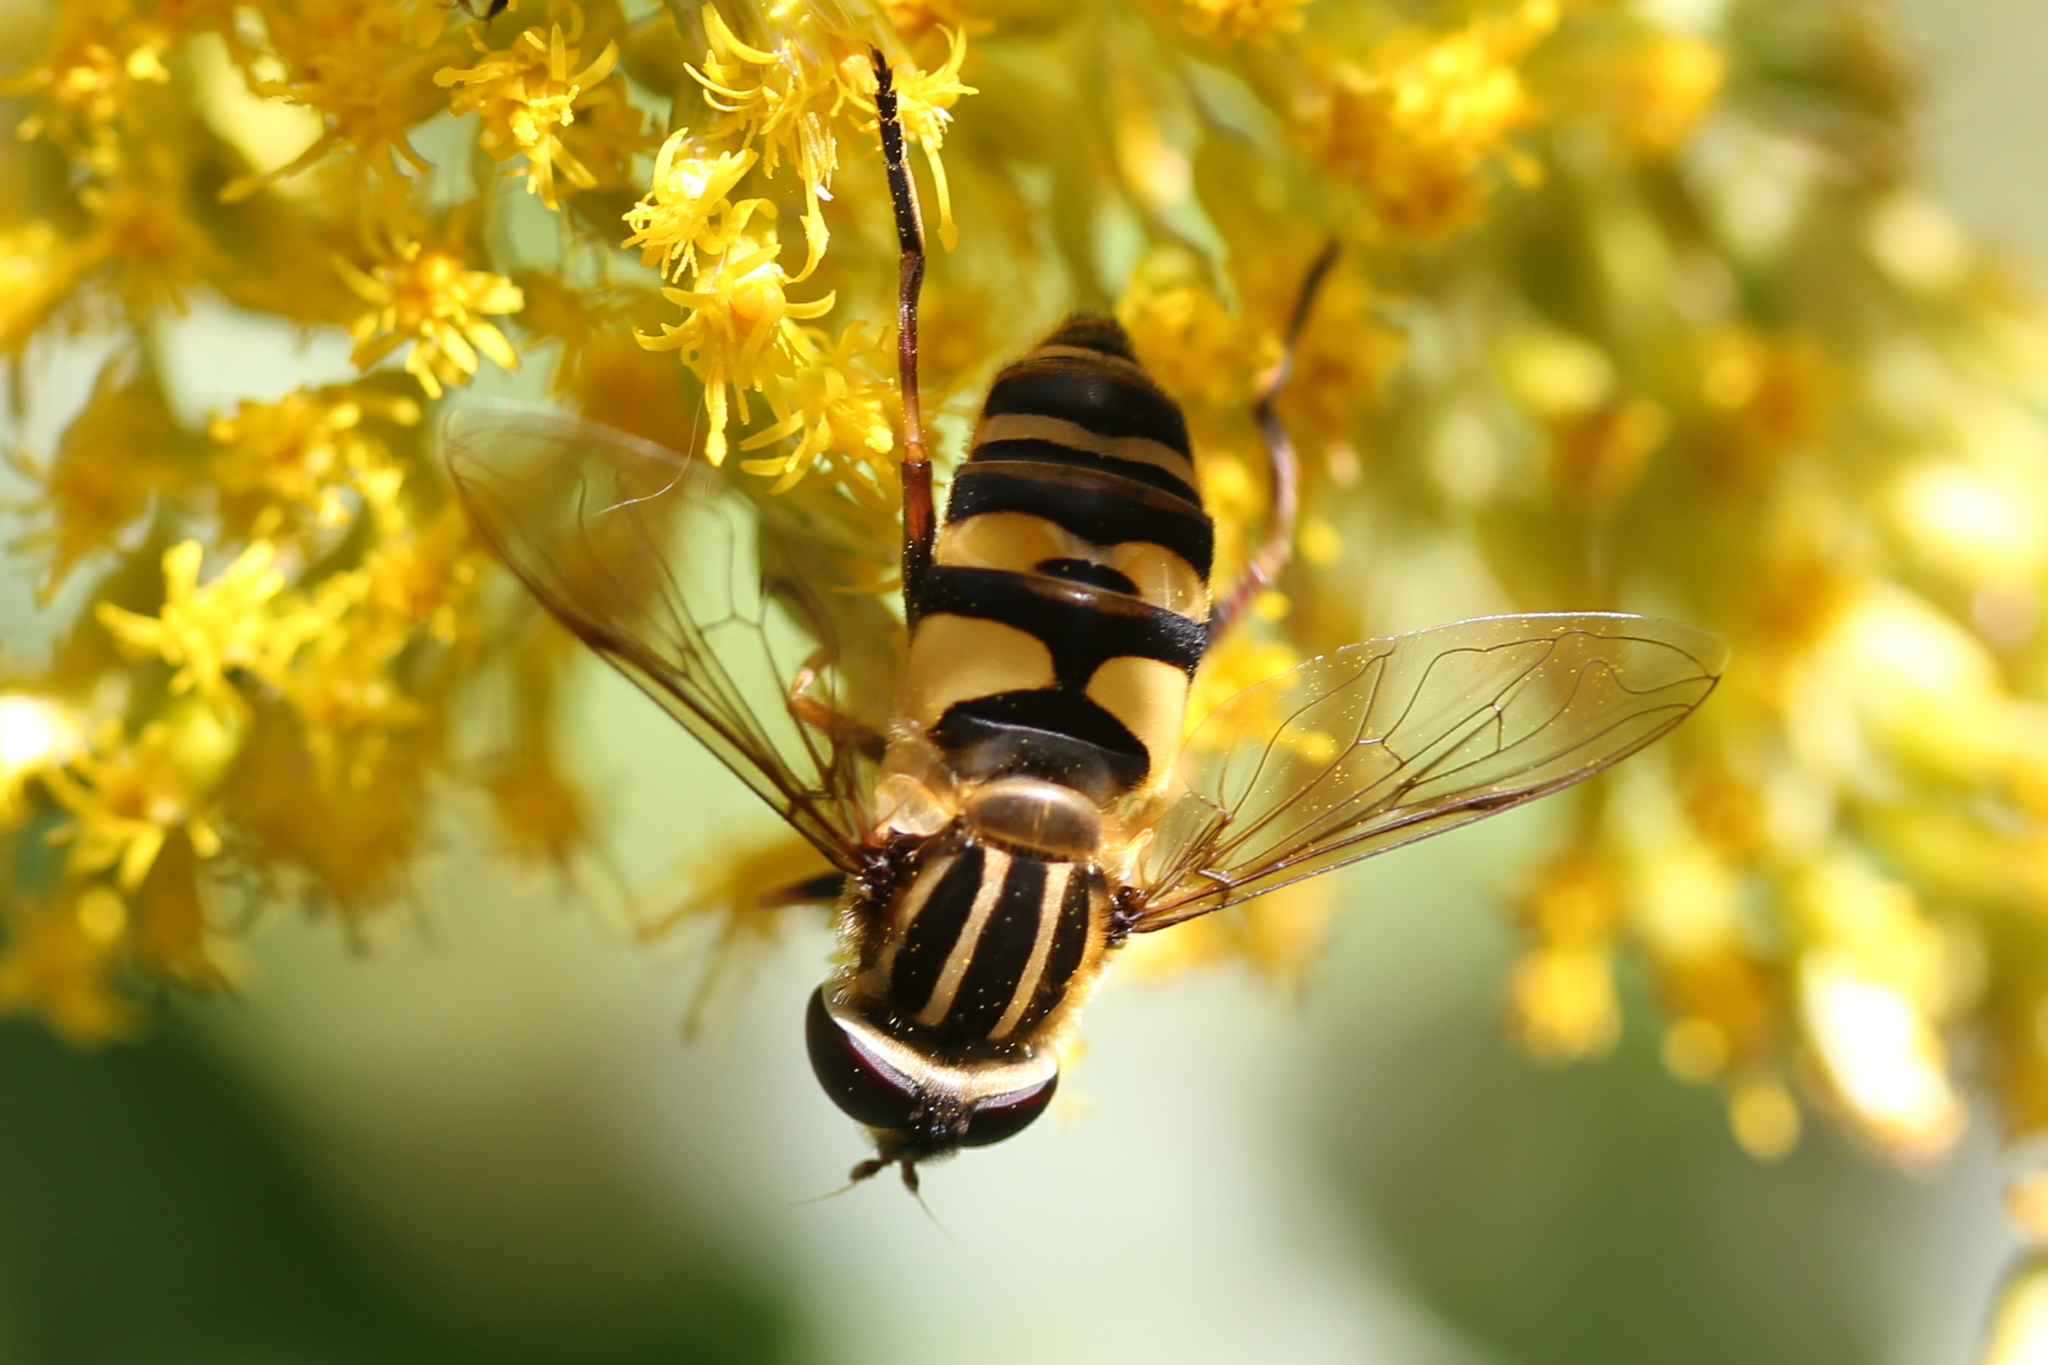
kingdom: Animalia
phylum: Arthropoda
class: Insecta
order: Diptera
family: Syrphidae
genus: Helophilus
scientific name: Helophilus fasciatus
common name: Narrow-headed marsh fly
